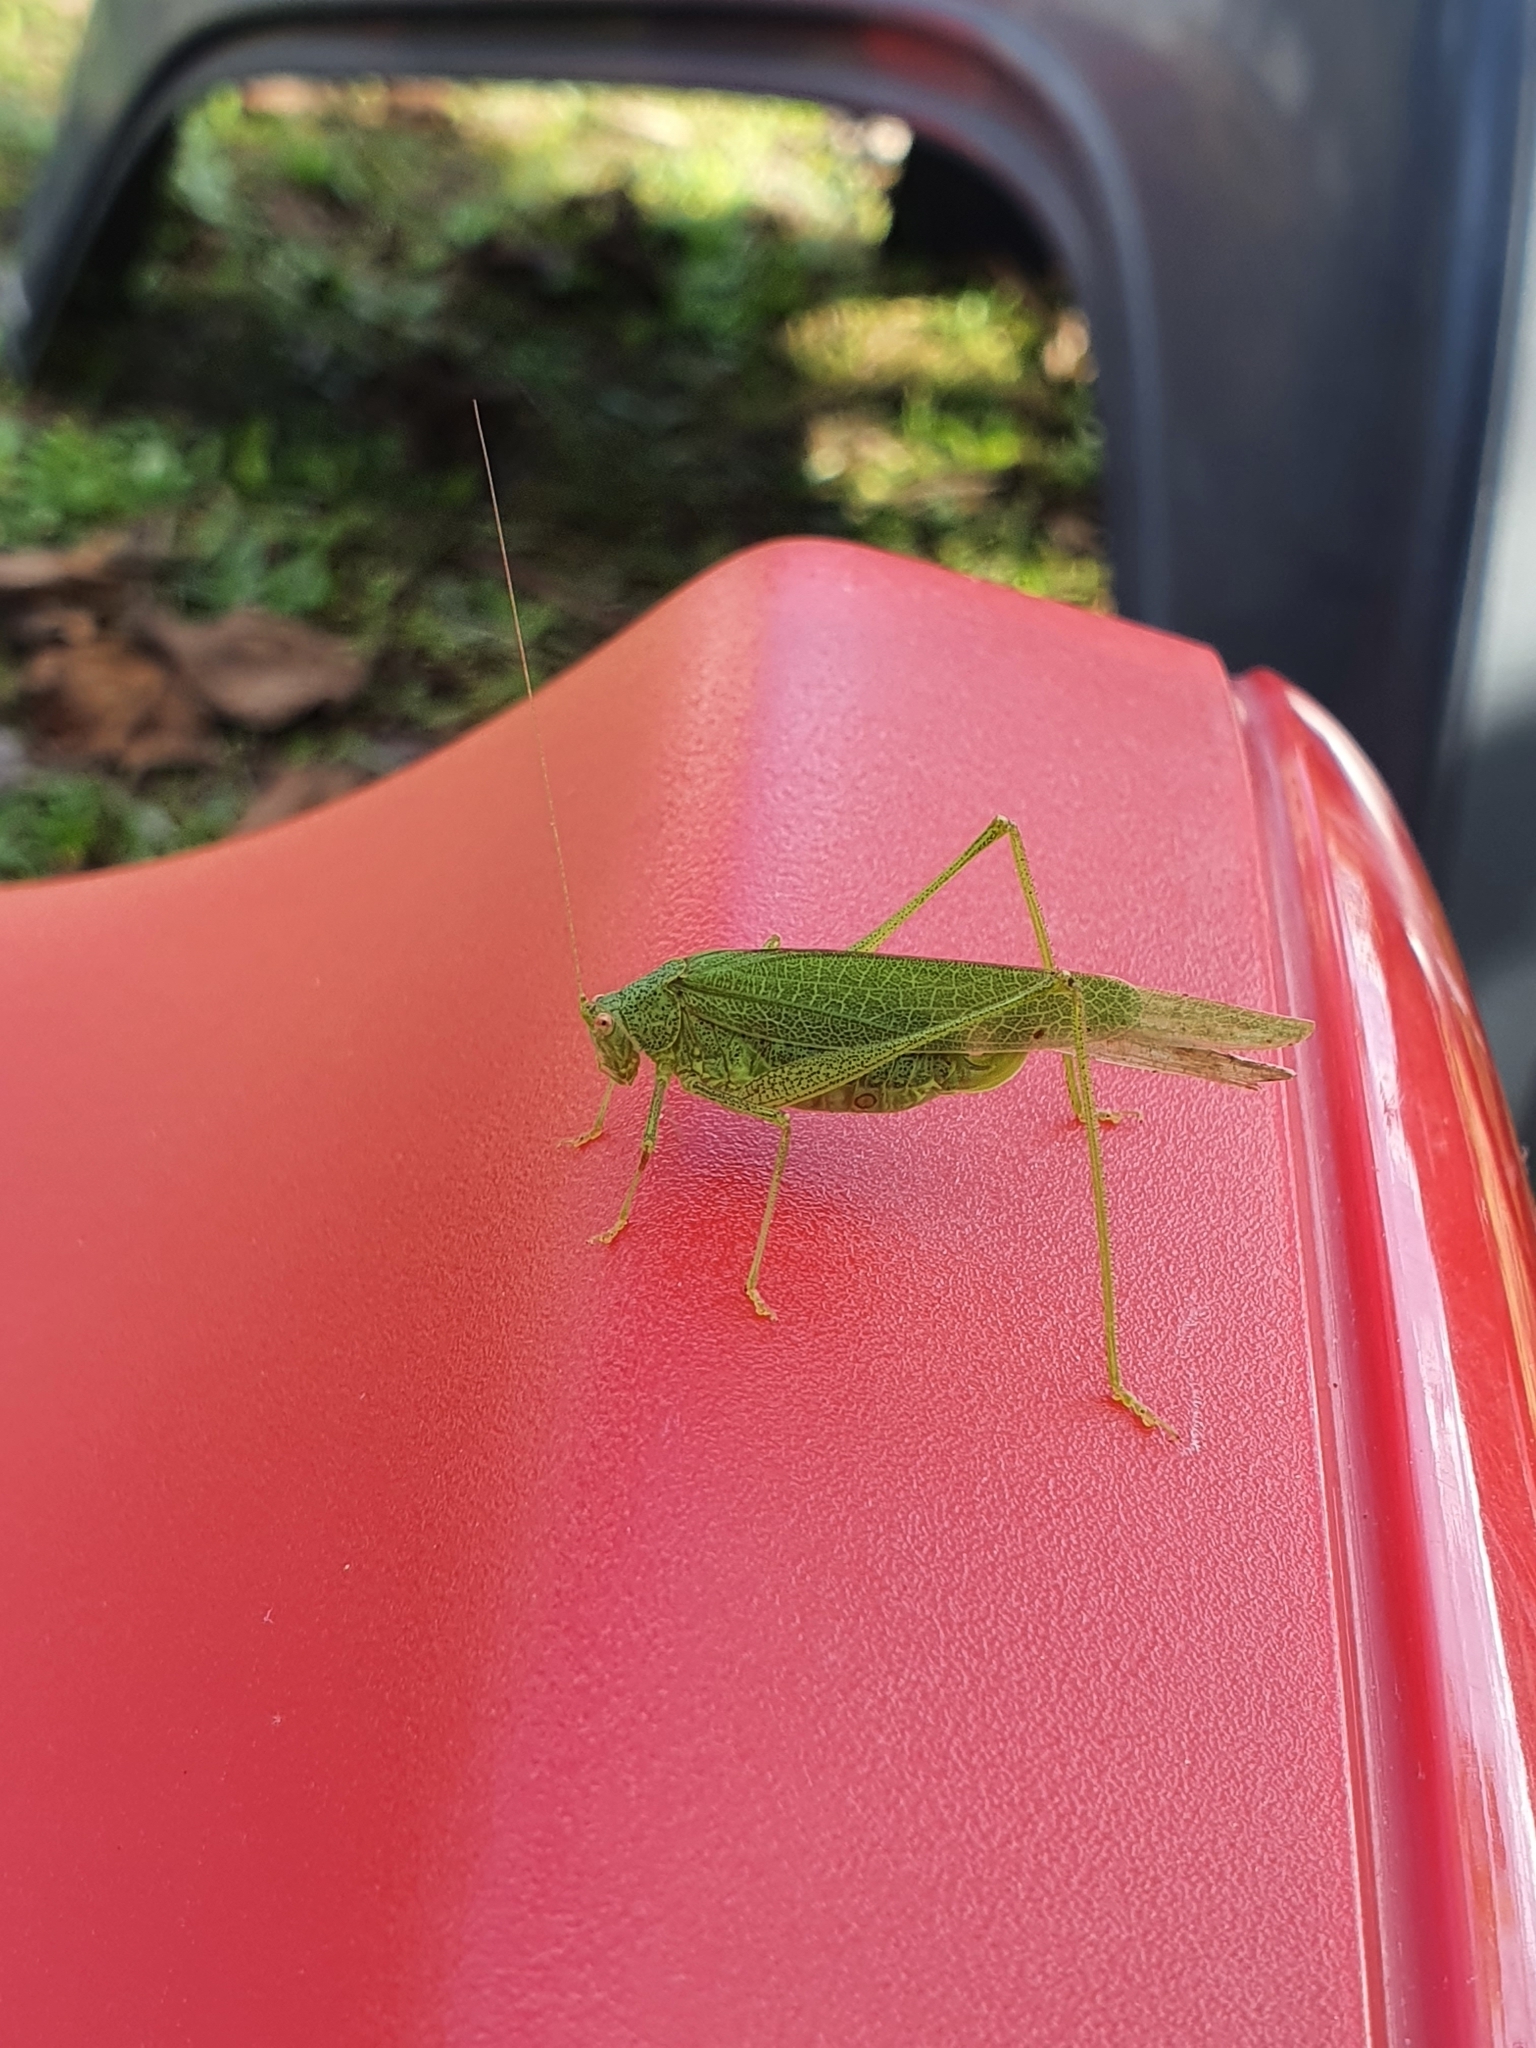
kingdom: Animalia
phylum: Arthropoda
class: Insecta
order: Orthoptera
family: Tettigoniidae
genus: Phaneroptera
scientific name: Phaneroptera nana
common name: Southern sickle bush-cricket
